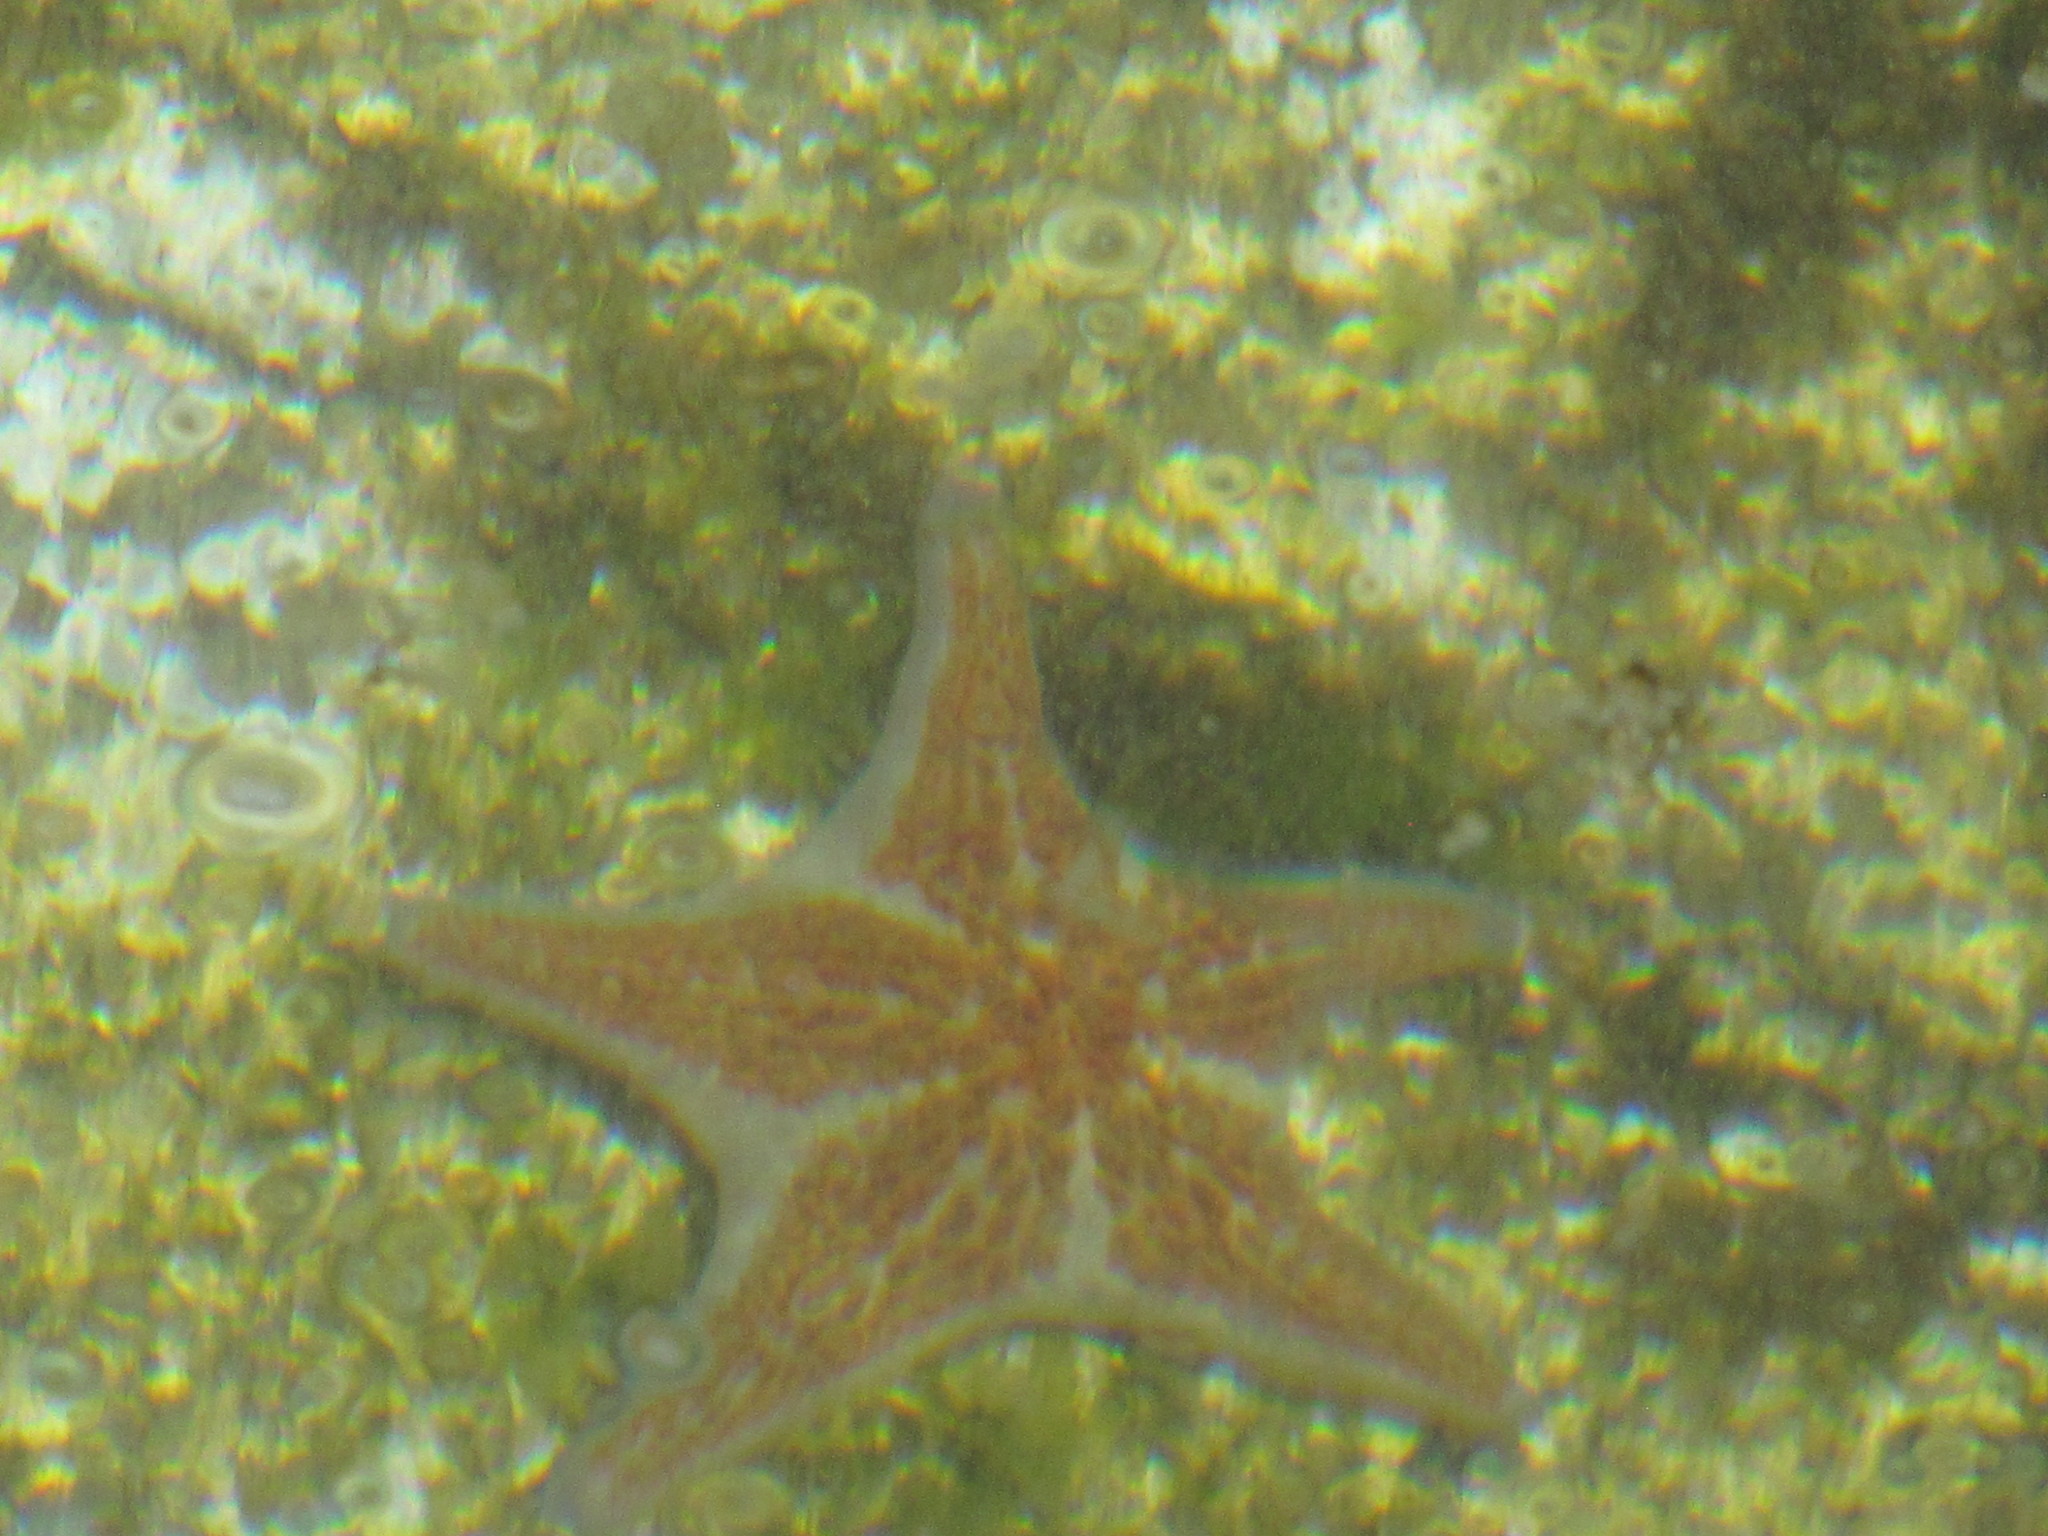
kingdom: Animalia
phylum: Echinodermata
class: Asteroidea
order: Valvatida
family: Asteropseidae
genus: Dermasterias
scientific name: Dermasterias imbricata
